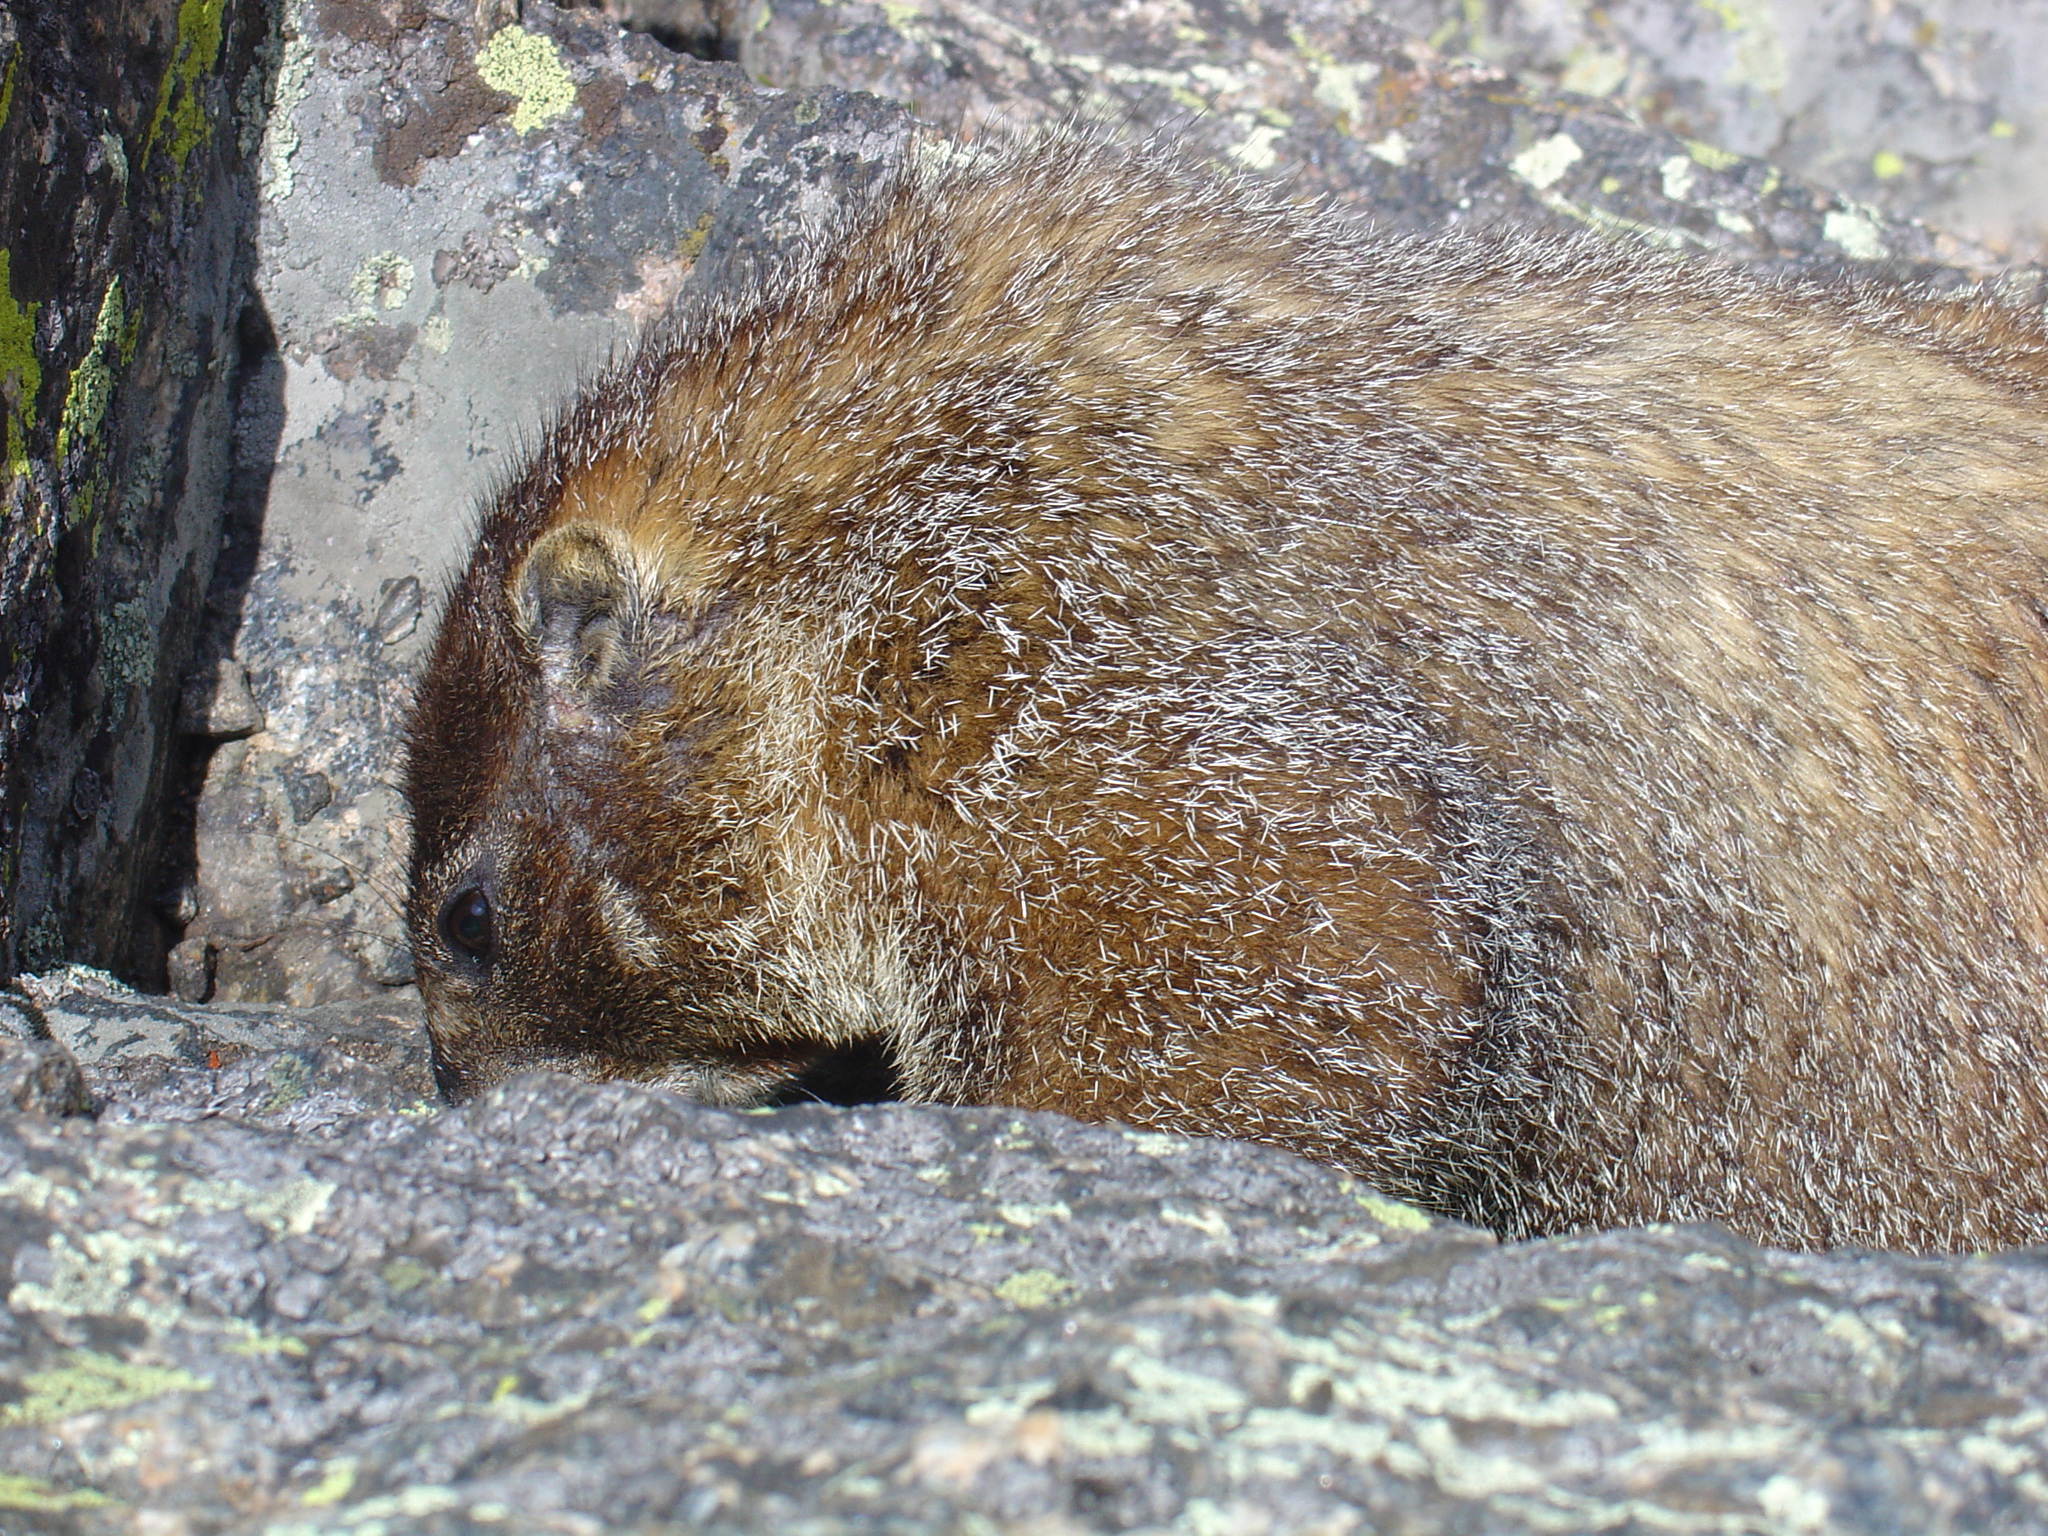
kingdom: Animalia
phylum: Chordata
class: Mammalia
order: Rodentia
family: Sciuridae
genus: Marmota
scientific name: Marmota flaviventris
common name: Yellow-bellied marmot
